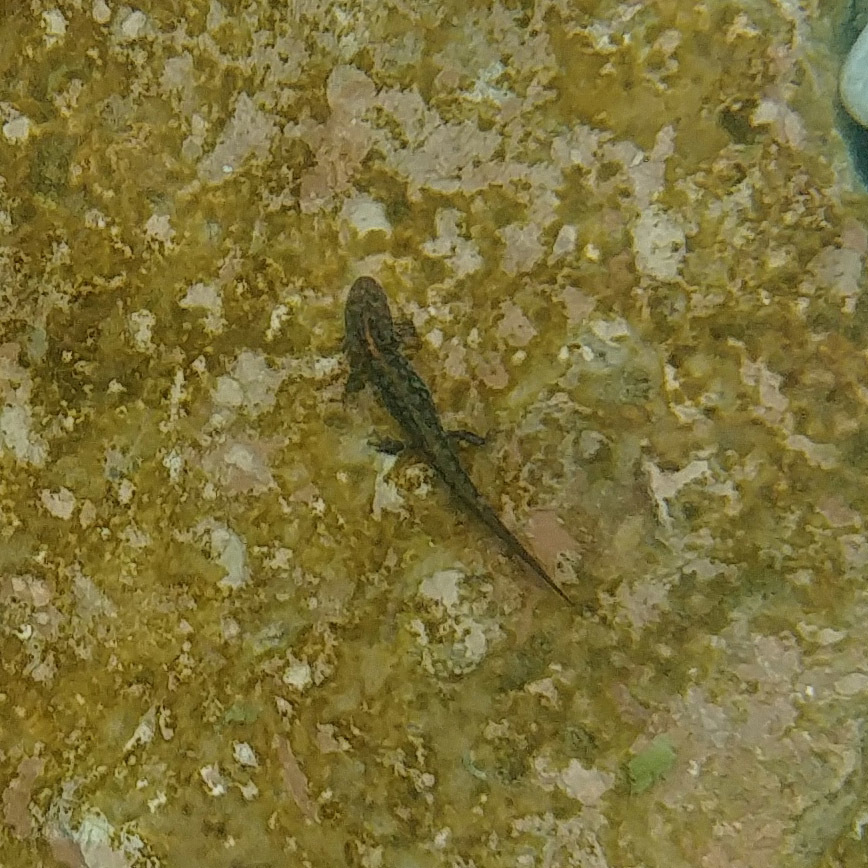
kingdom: Animalia
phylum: Chordata
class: Amphibia
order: Caudata
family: Salamandridae
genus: Ichthyosaura
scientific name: Ichthyosaura alpestris
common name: Alpine newt
